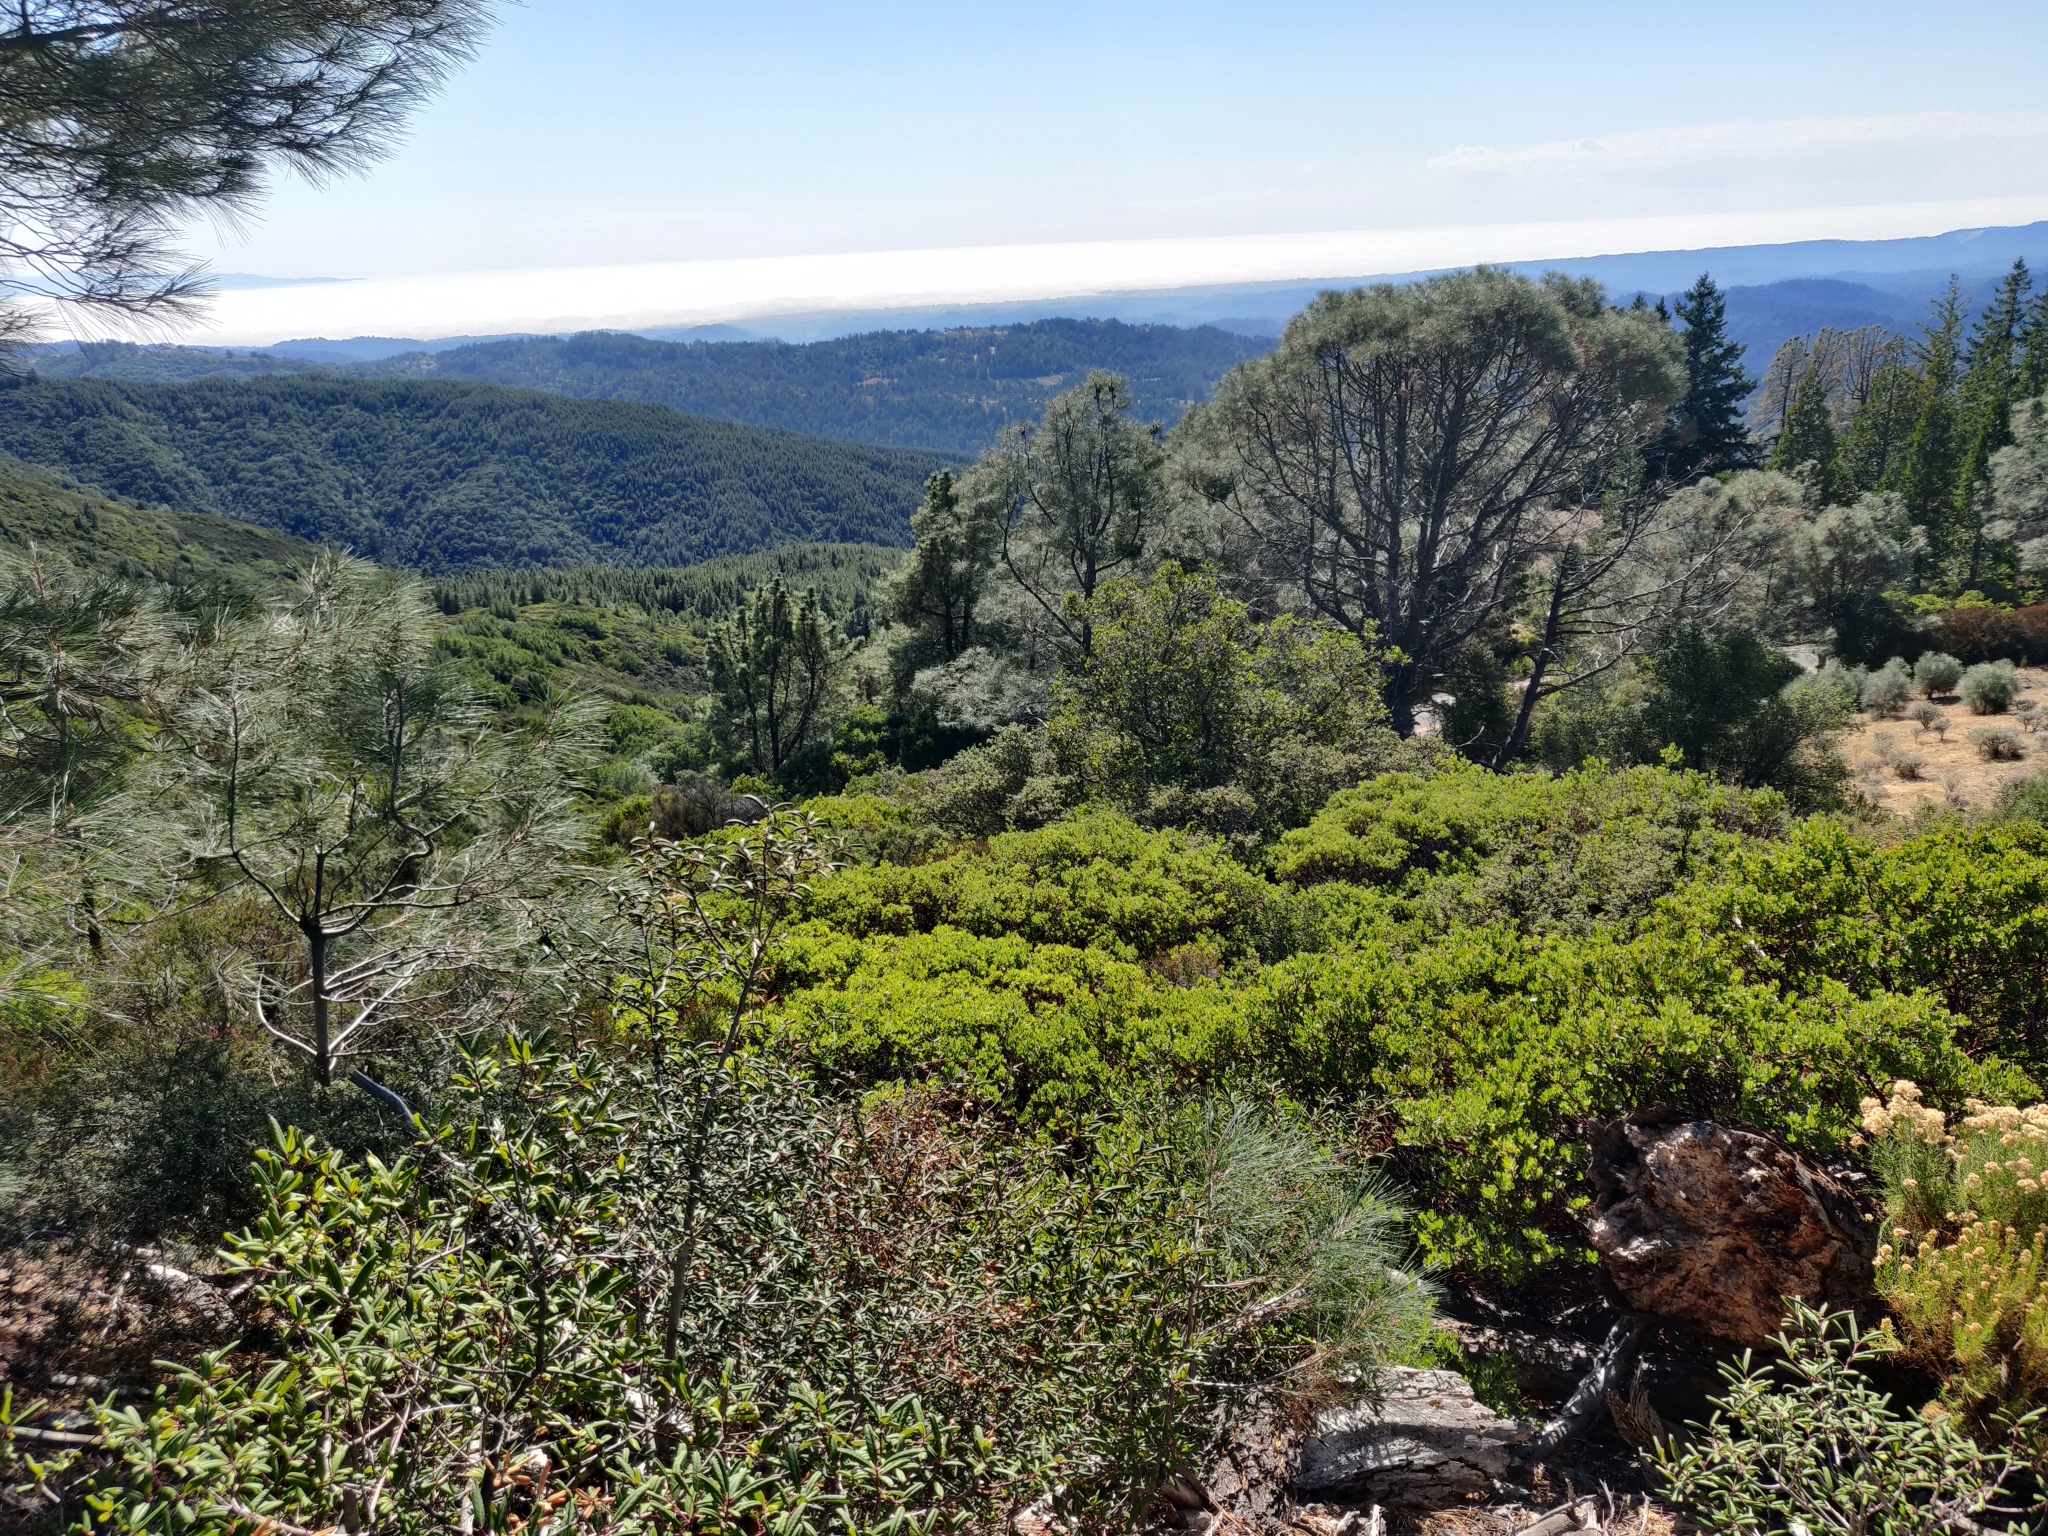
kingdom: Plantae
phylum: Tracheophyta
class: Magnoliopsida
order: Ericales
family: Ericaceae
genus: Arctostaphylos
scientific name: Arctostaphylos crustacea
